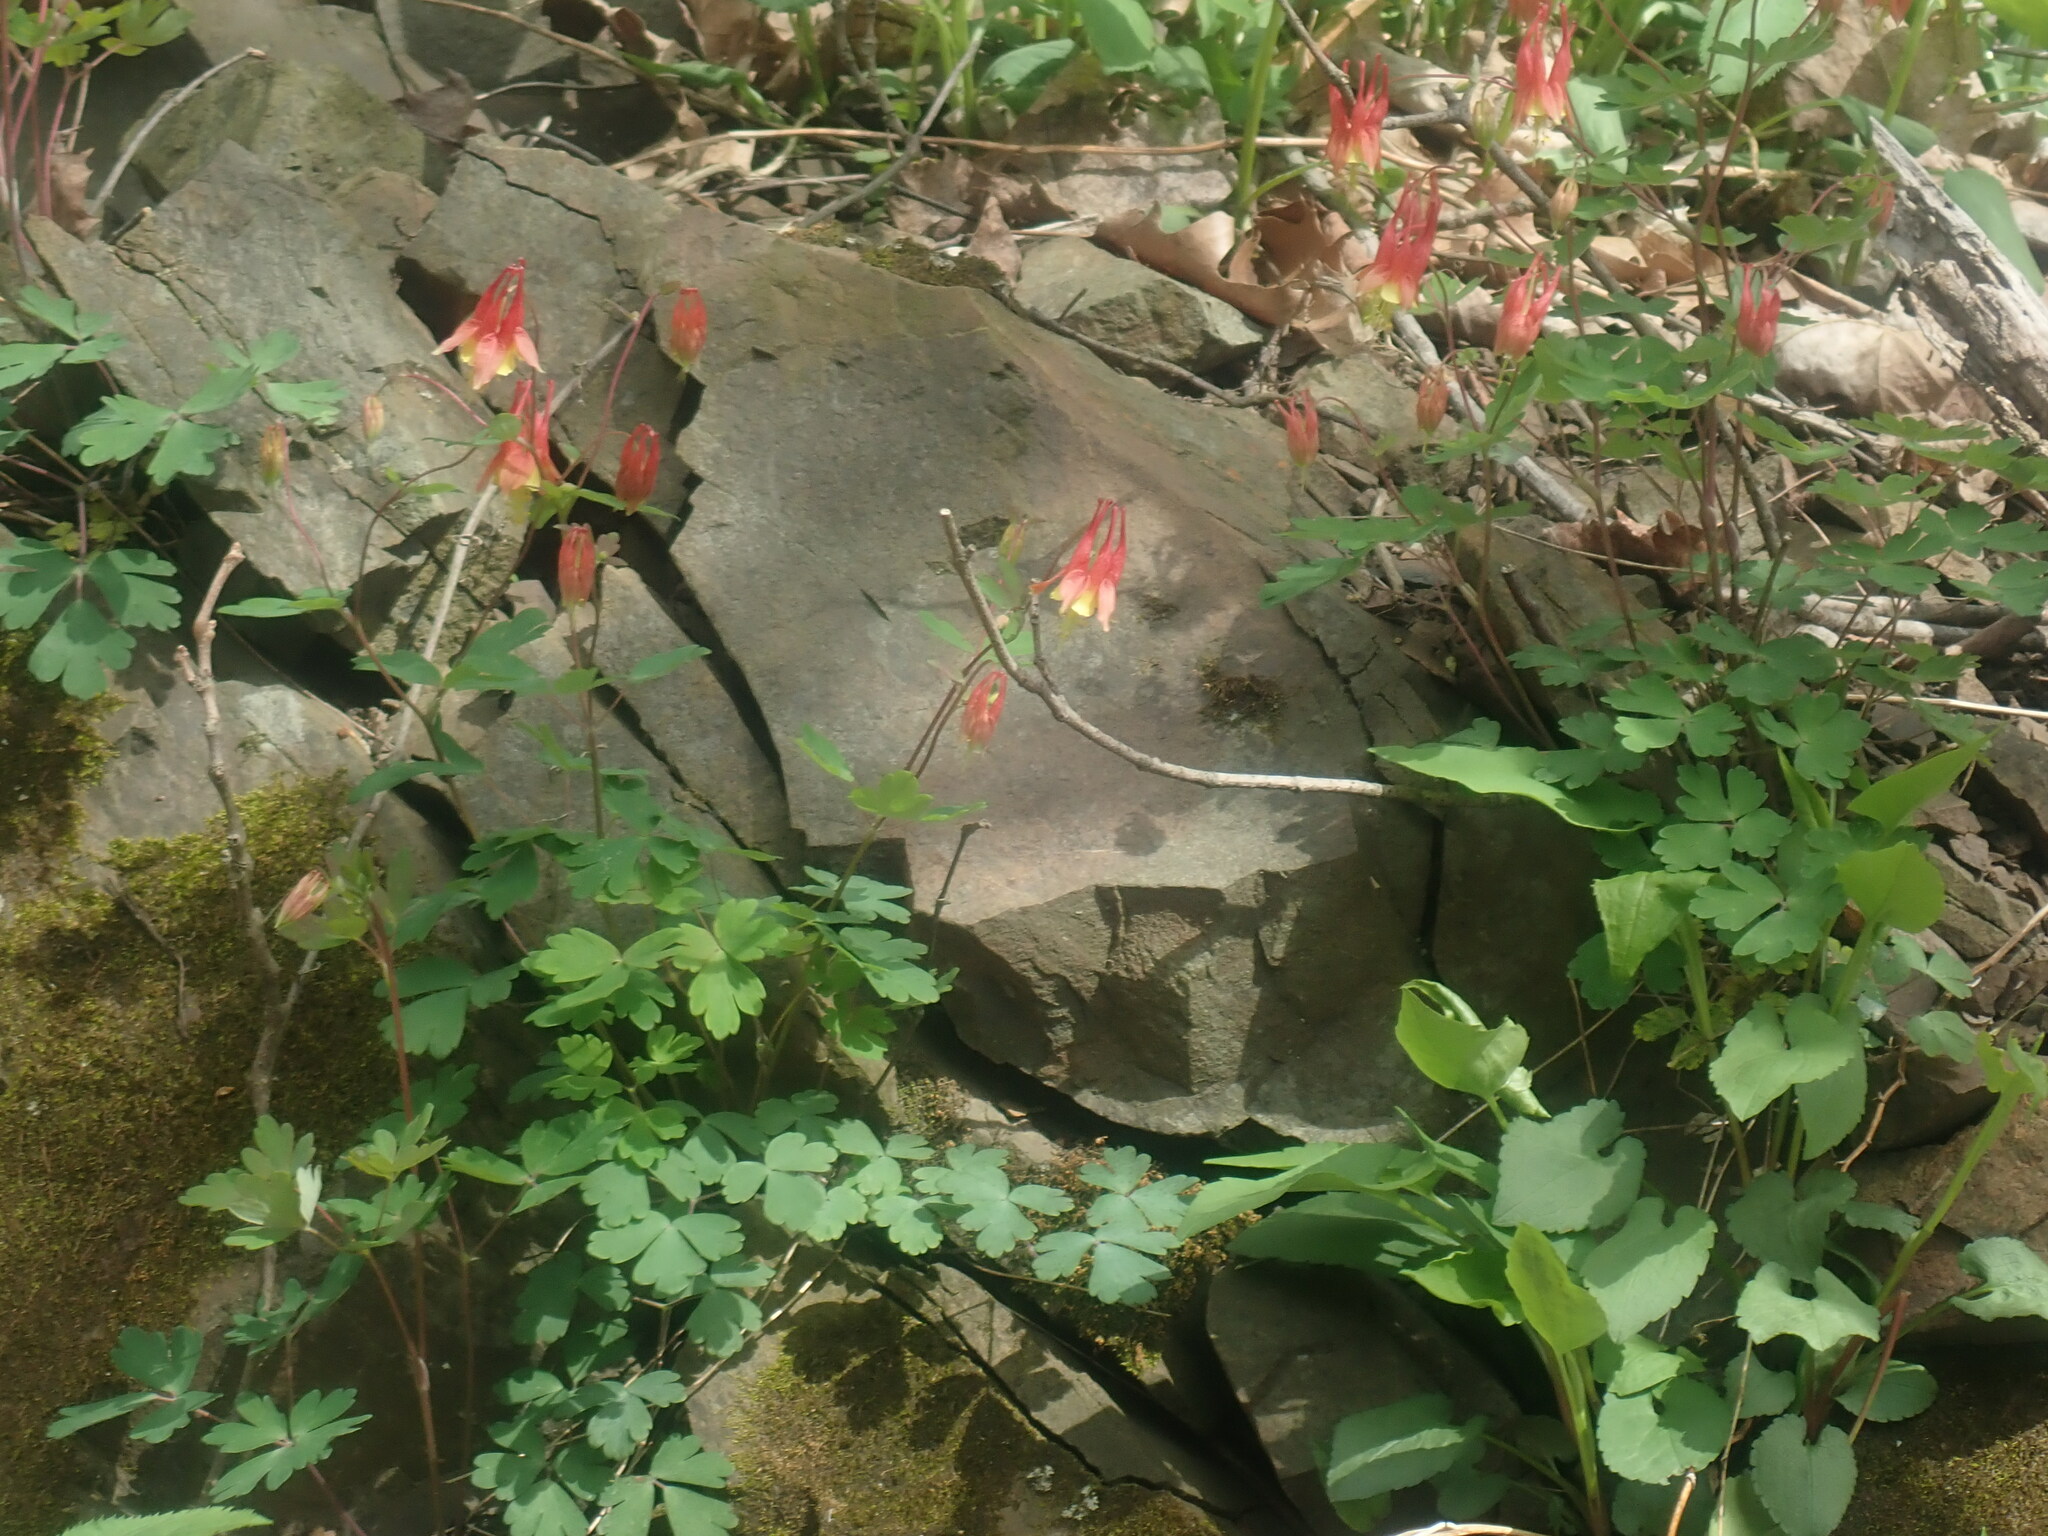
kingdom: Plantae
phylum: Tracheophyta
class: Magnoliopsida
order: Ranunculales
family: Ranunculaceae
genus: Aquilegia
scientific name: Aquilegia canadensis
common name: American columbine
